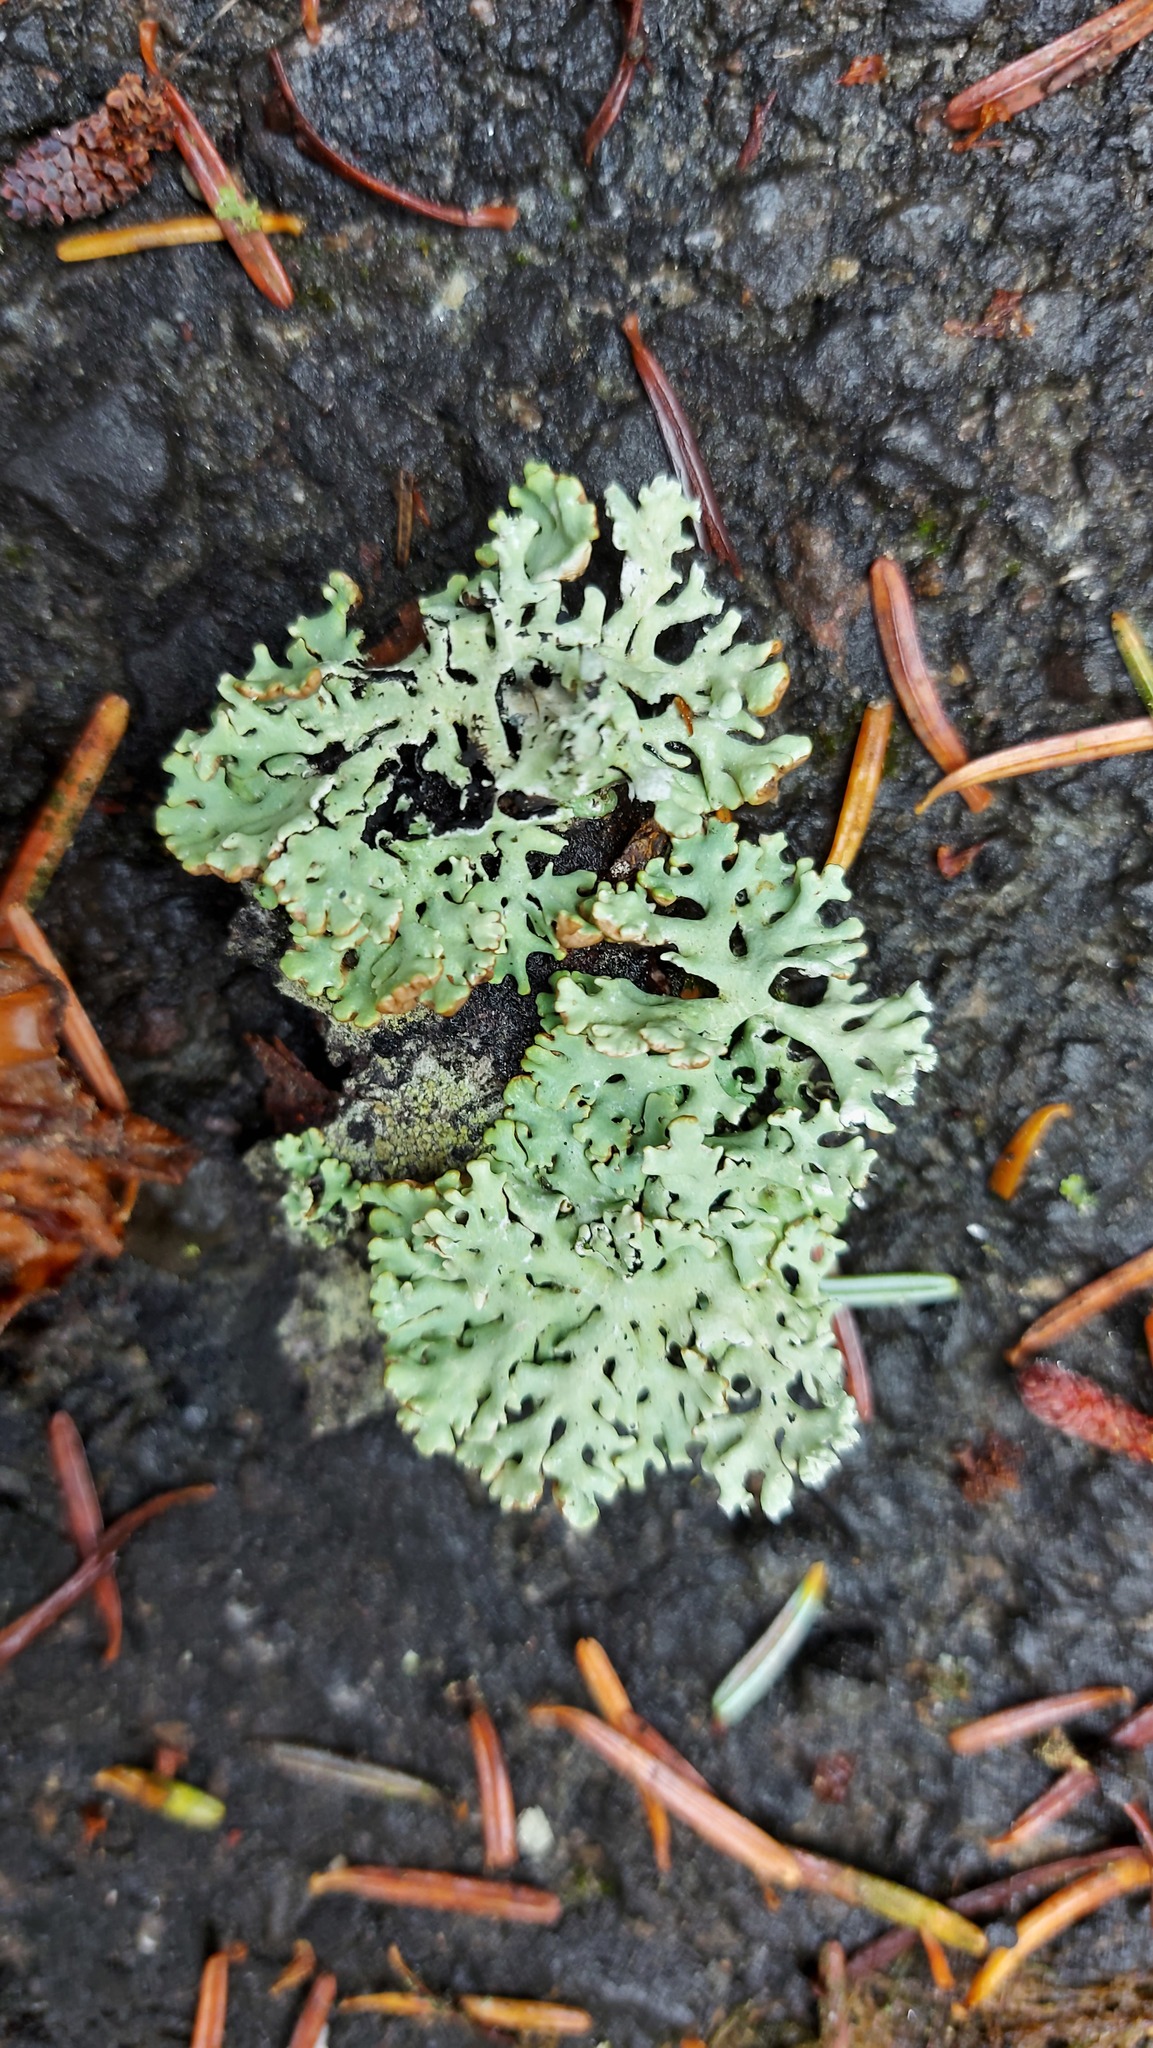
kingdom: Fungi
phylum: Ascomycota
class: Lecanoromycetes
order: Lecanorales
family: Parmeliaceae
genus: Hypogymnia
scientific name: Hypogymnia physodes
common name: Dark crottle
